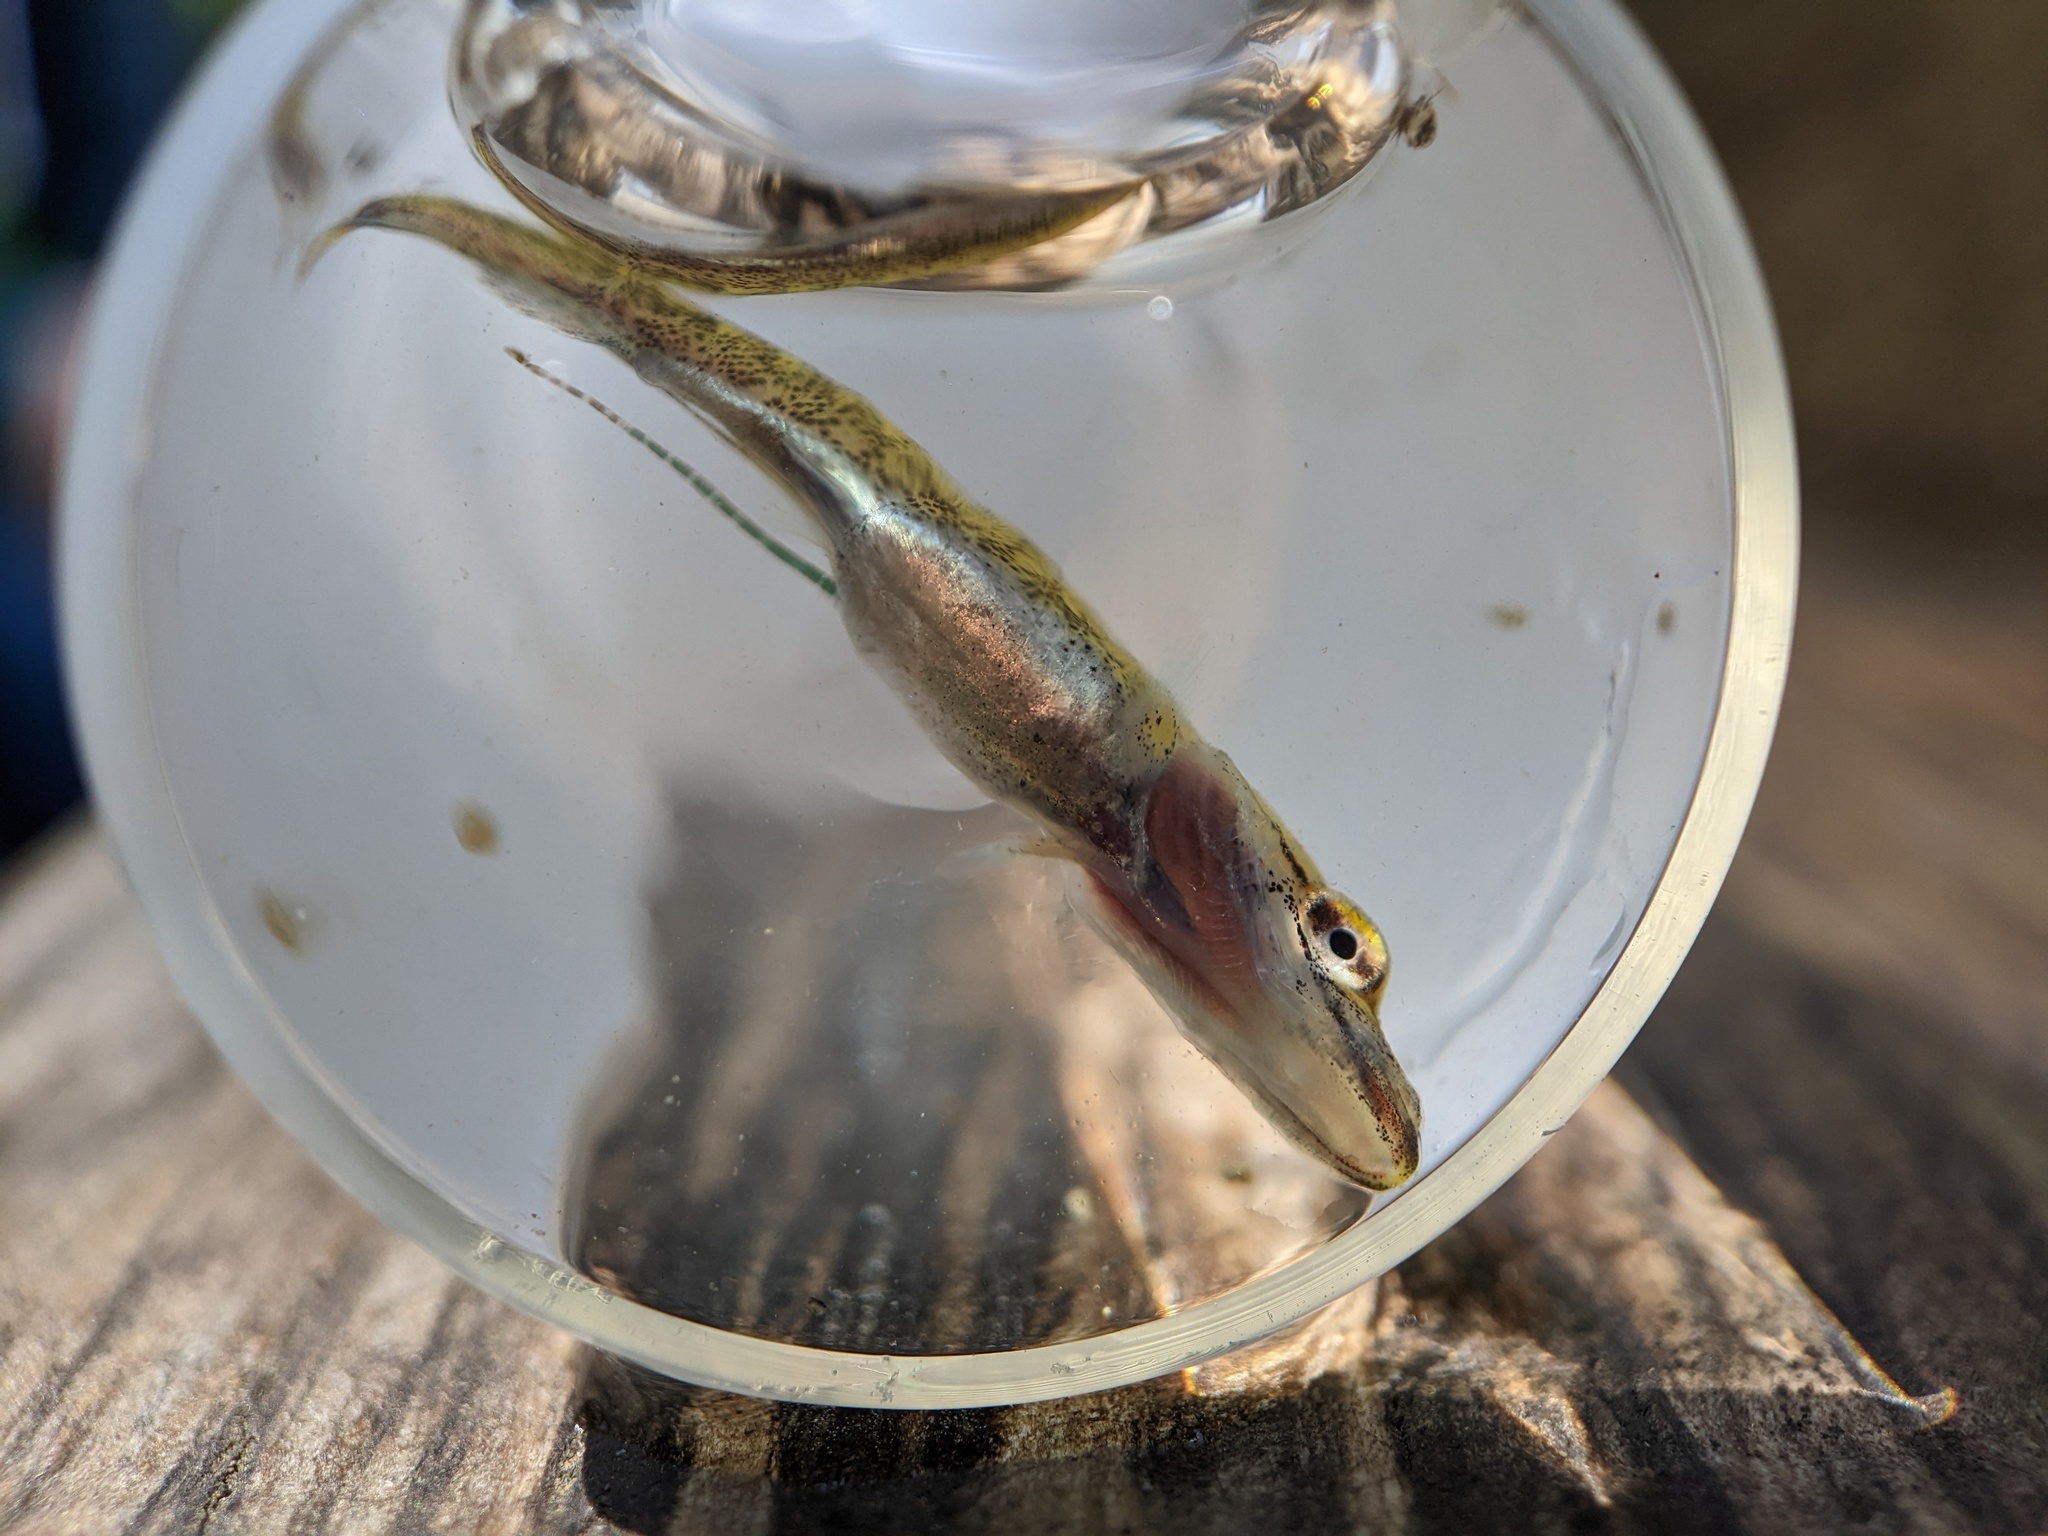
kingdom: Animalia
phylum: Chordata
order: Esociformes
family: Esocidae
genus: Esox
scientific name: Esox lucius
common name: Northern pike
